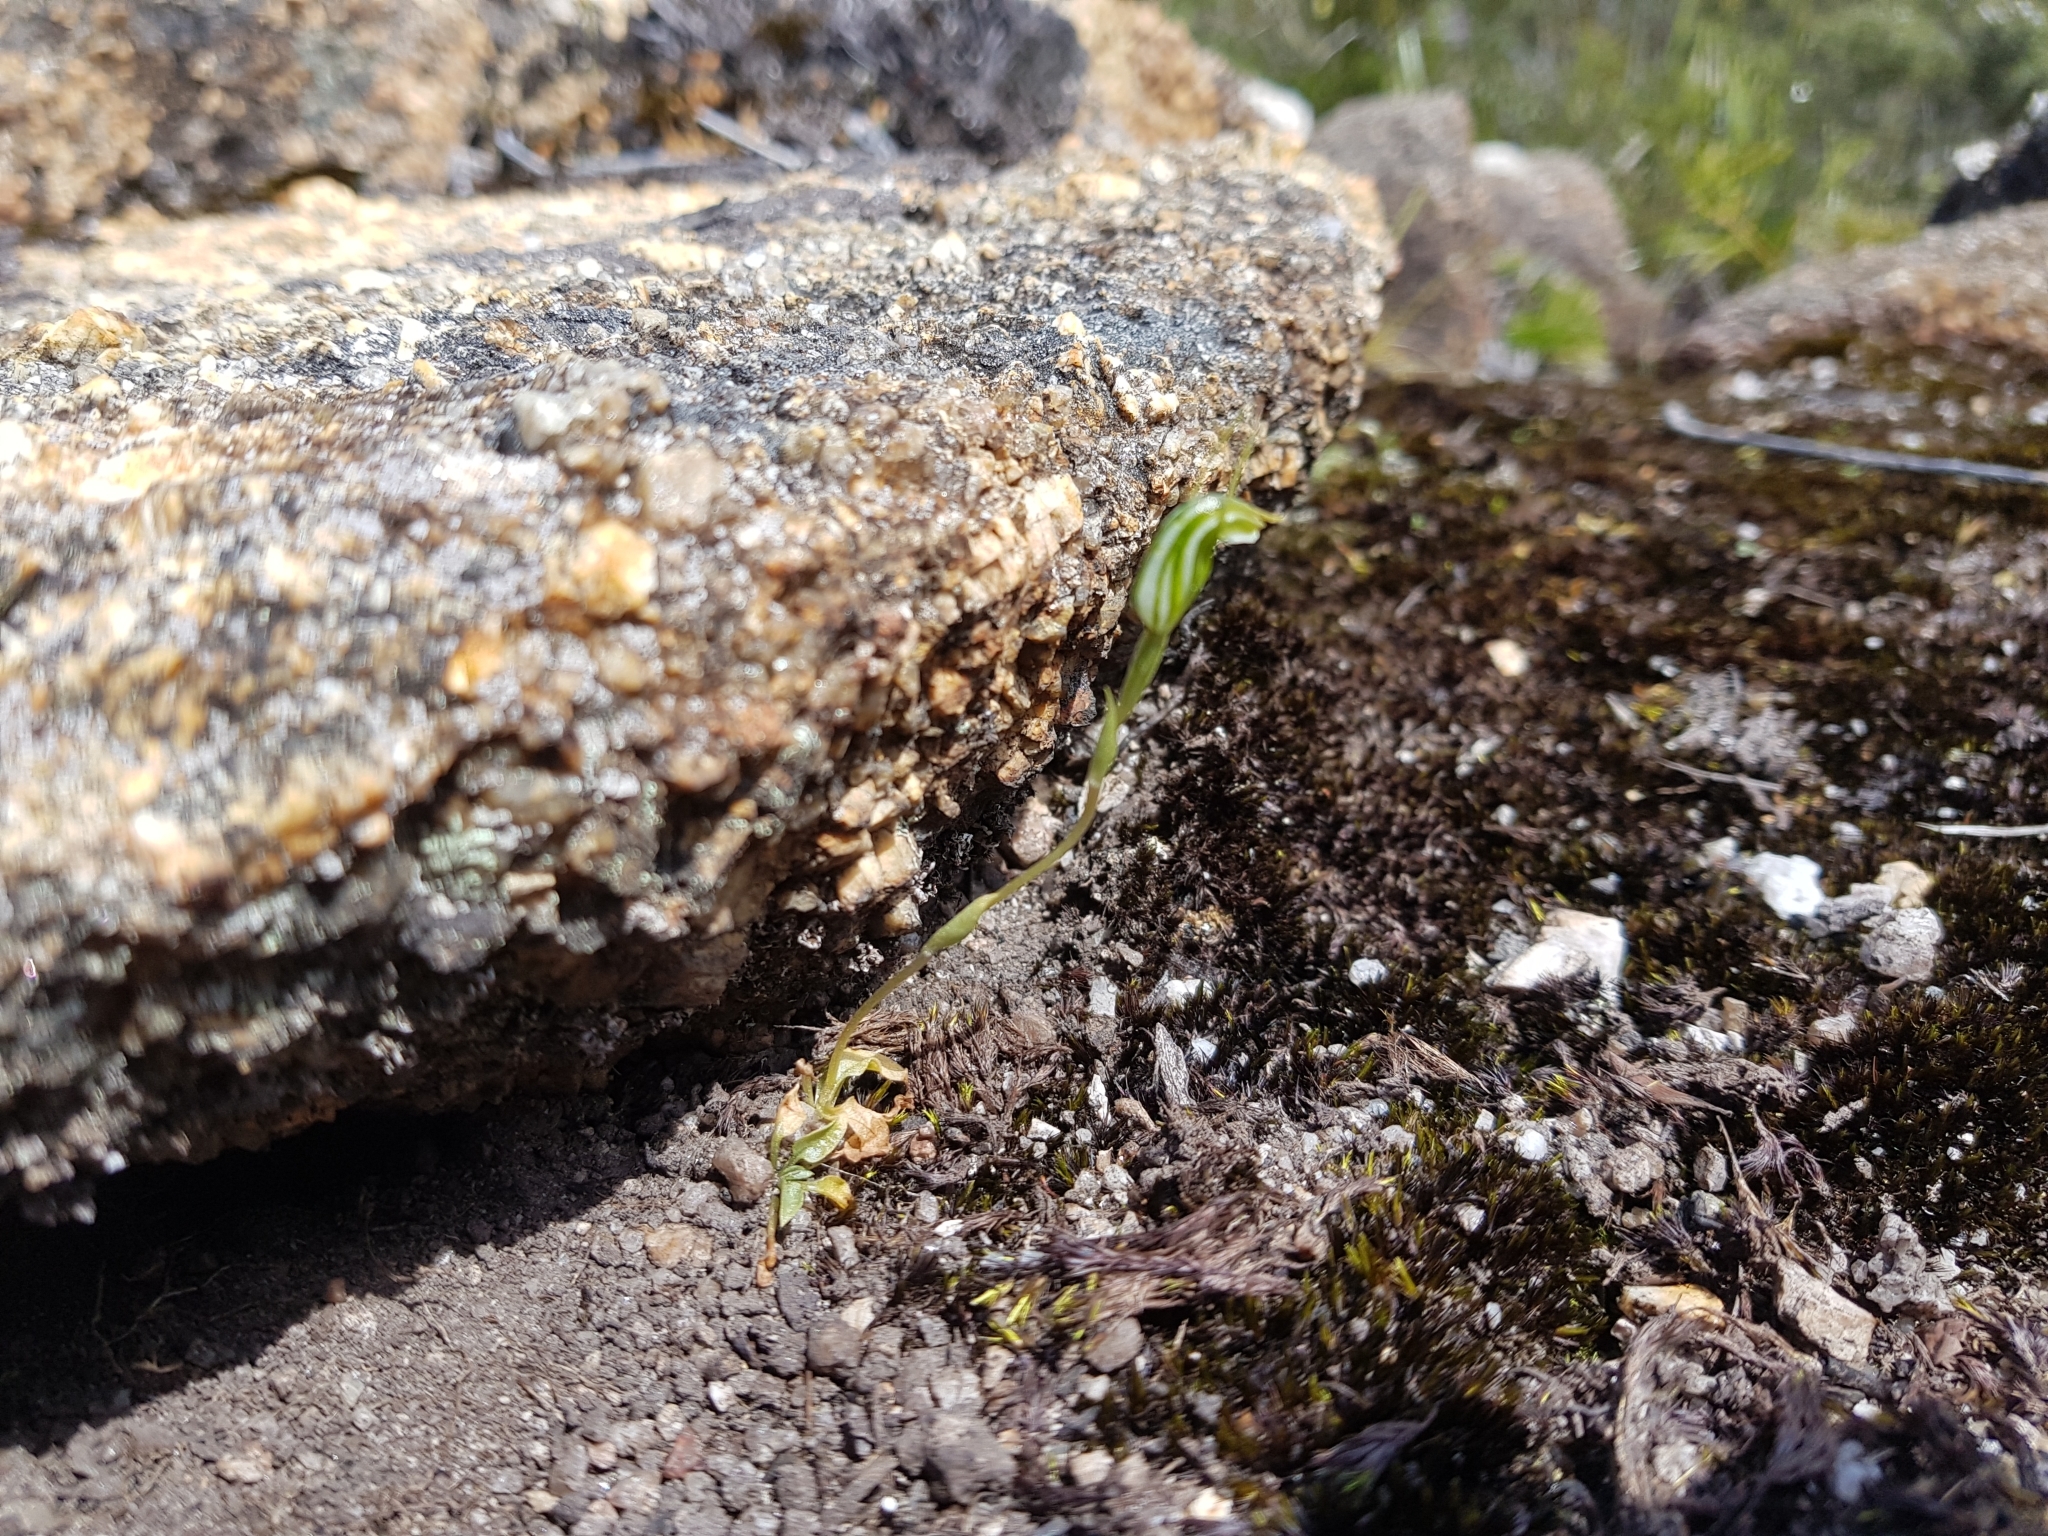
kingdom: Plantae
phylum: Tracheophyta
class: Liliopsida
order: Asparagales
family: Orchidaceae
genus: Pterostylis
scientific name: Pterostylis parva
